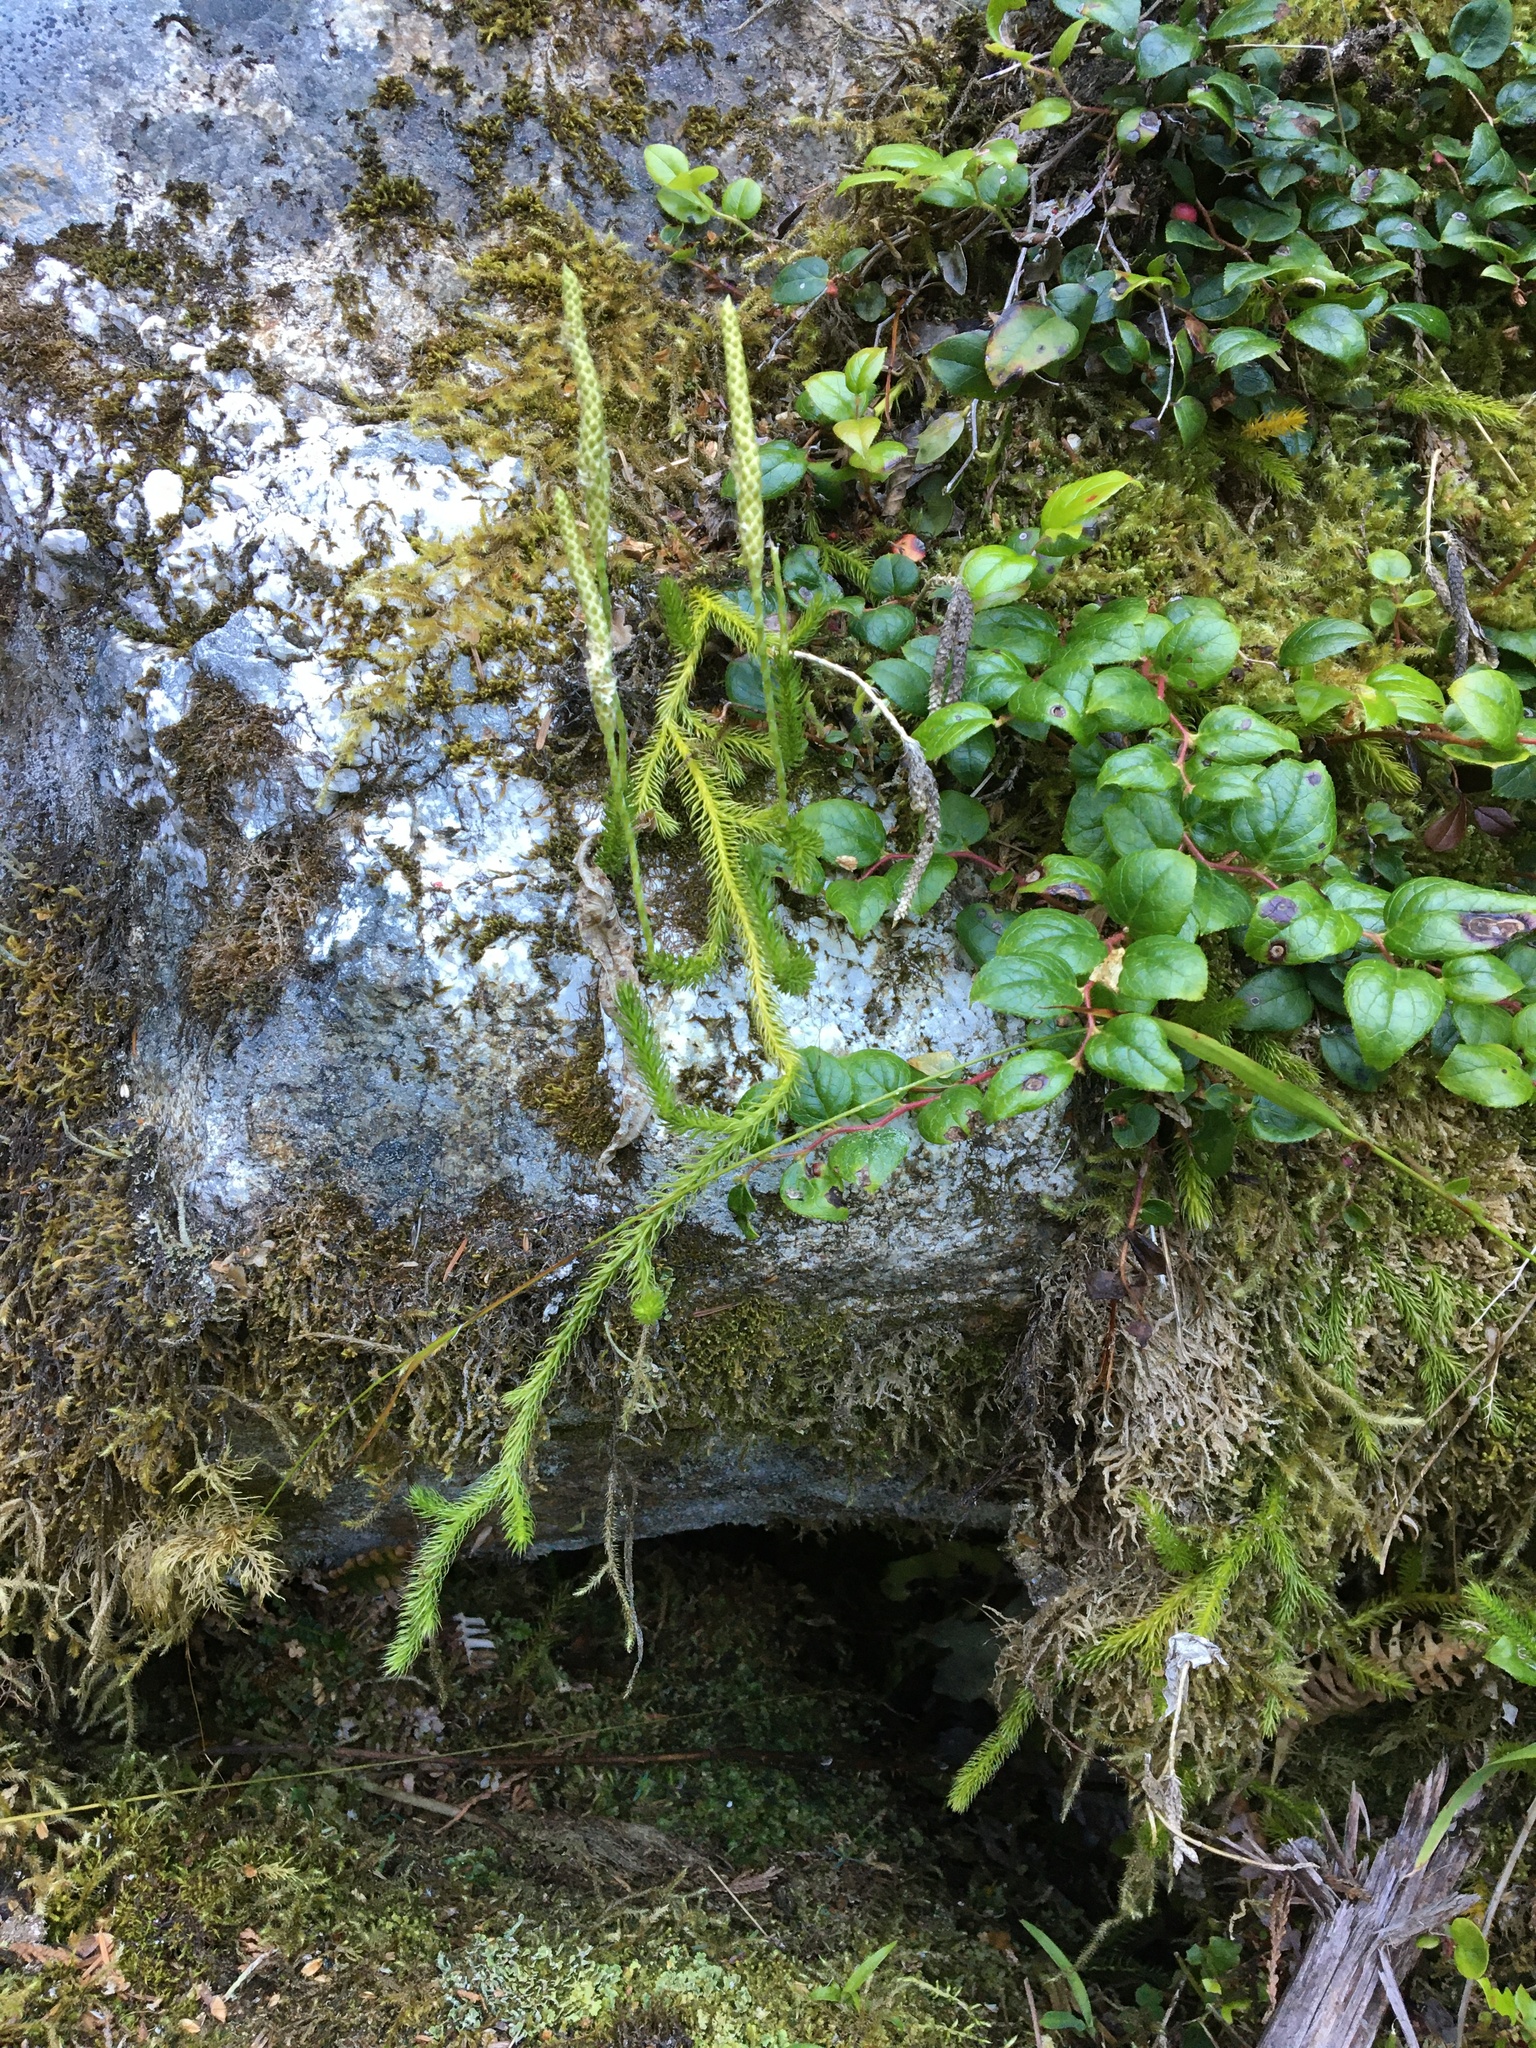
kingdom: Plantae
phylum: Tracheophyta
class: Lycopodiopsida
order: Lycopodiales
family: Lycopodiaceae
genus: Lycopodium
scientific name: Lycopodium lagopus
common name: One-cone clubmoss
